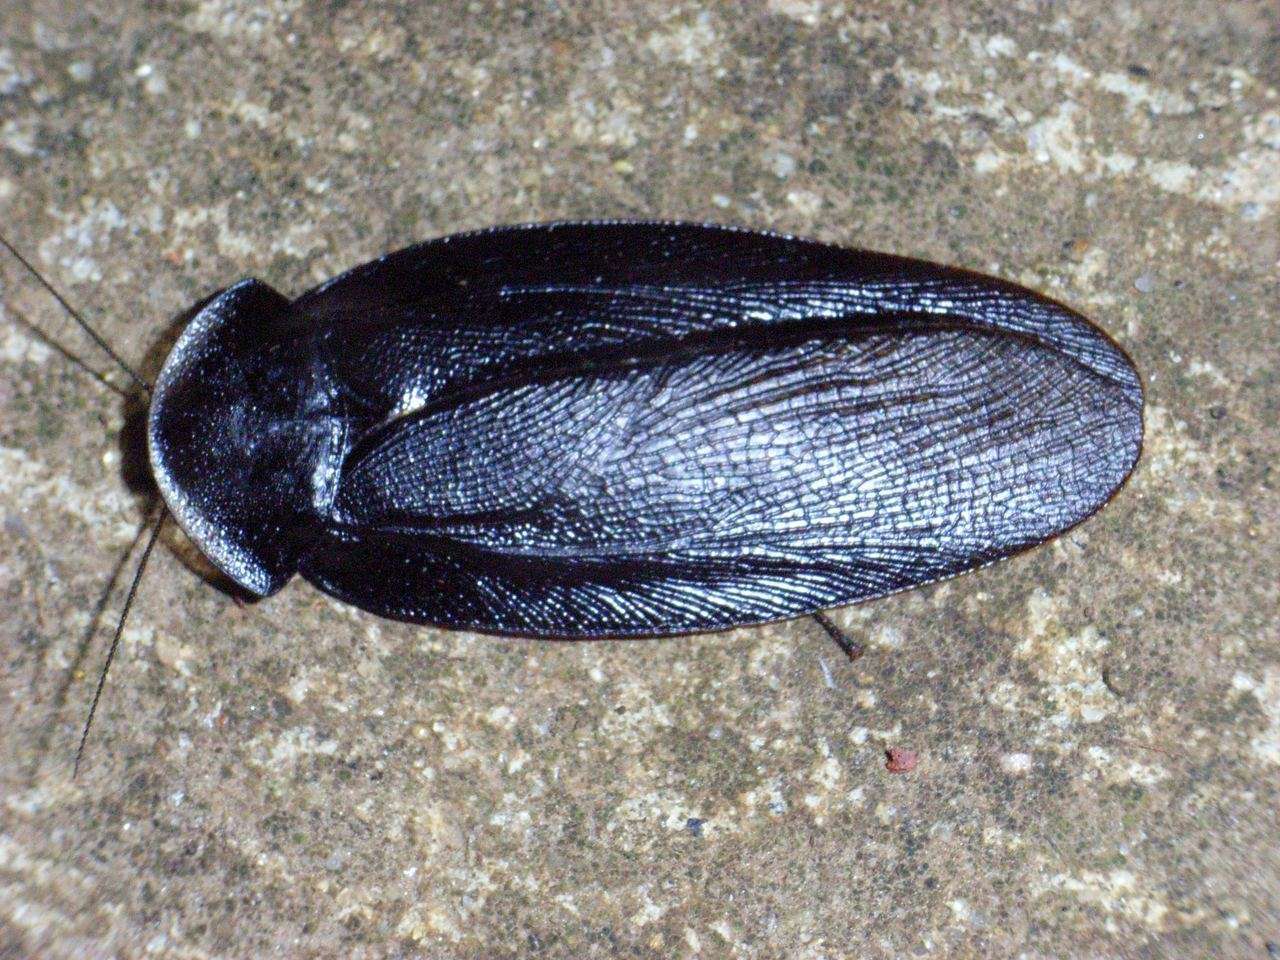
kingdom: Animalia
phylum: Arthropoda
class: Insecta
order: Blattodea
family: Blaberidae
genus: Laxta
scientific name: Laxta granicollis
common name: Bark cockroach
